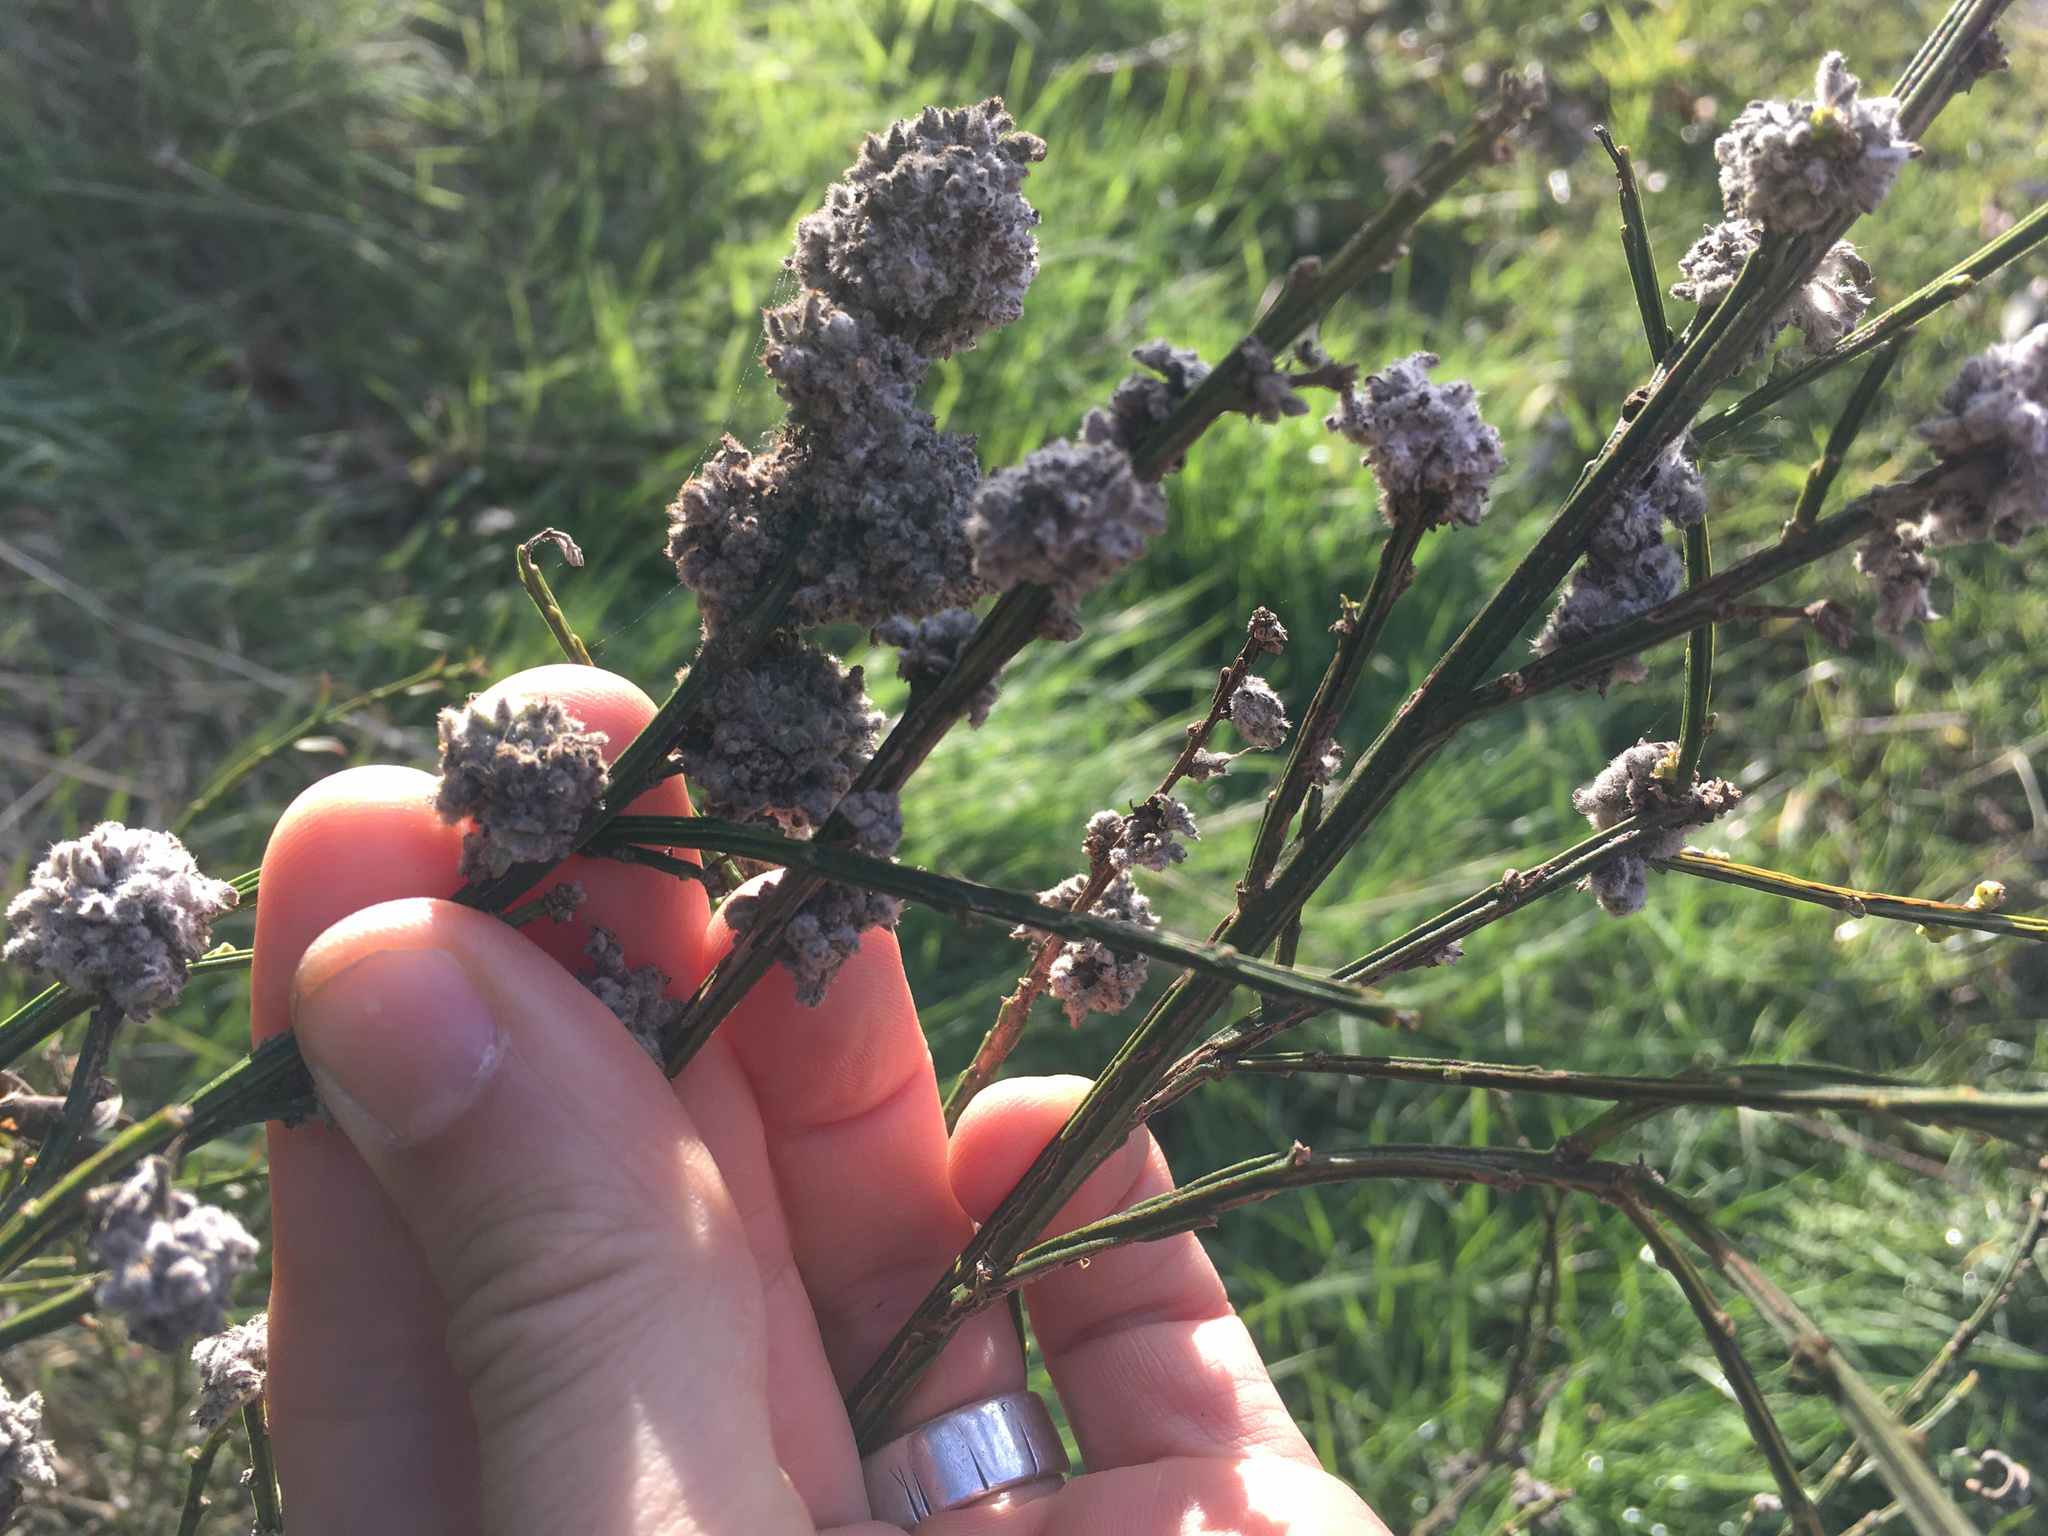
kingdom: Animalia
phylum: Arthropoda
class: Arachnida
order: Trombidiformes
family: Eriophyidae
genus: Aceria
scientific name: Aceria genistae
